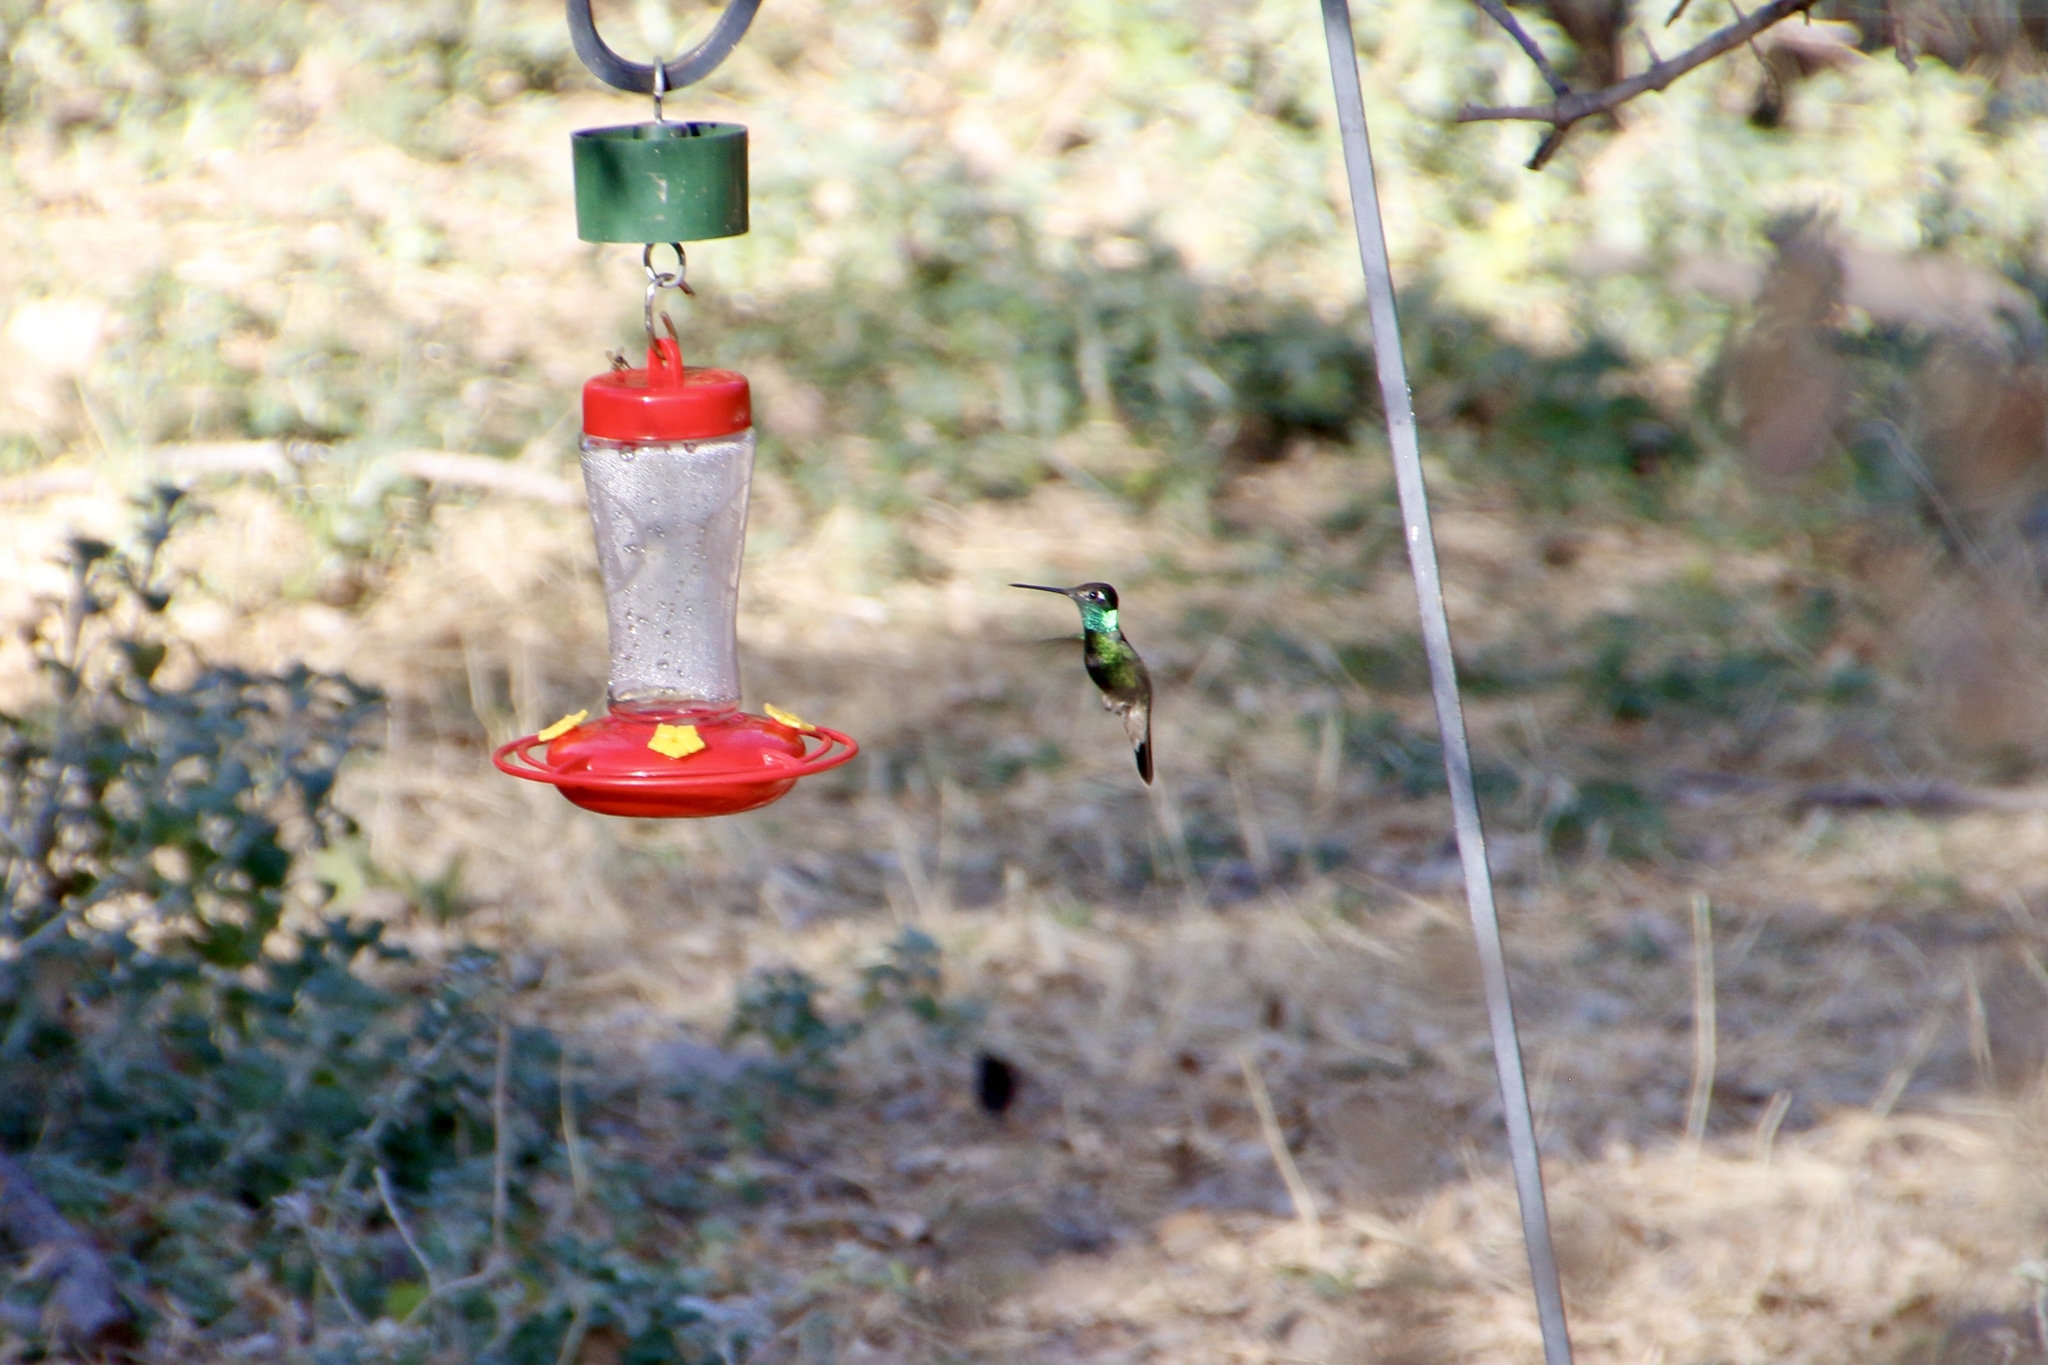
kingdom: Animalia
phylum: Chordata
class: Aves
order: Apodiformes
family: Trochilidae
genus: Eugenes
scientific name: Eugenes fulgens
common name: Magnificent hummingbird
